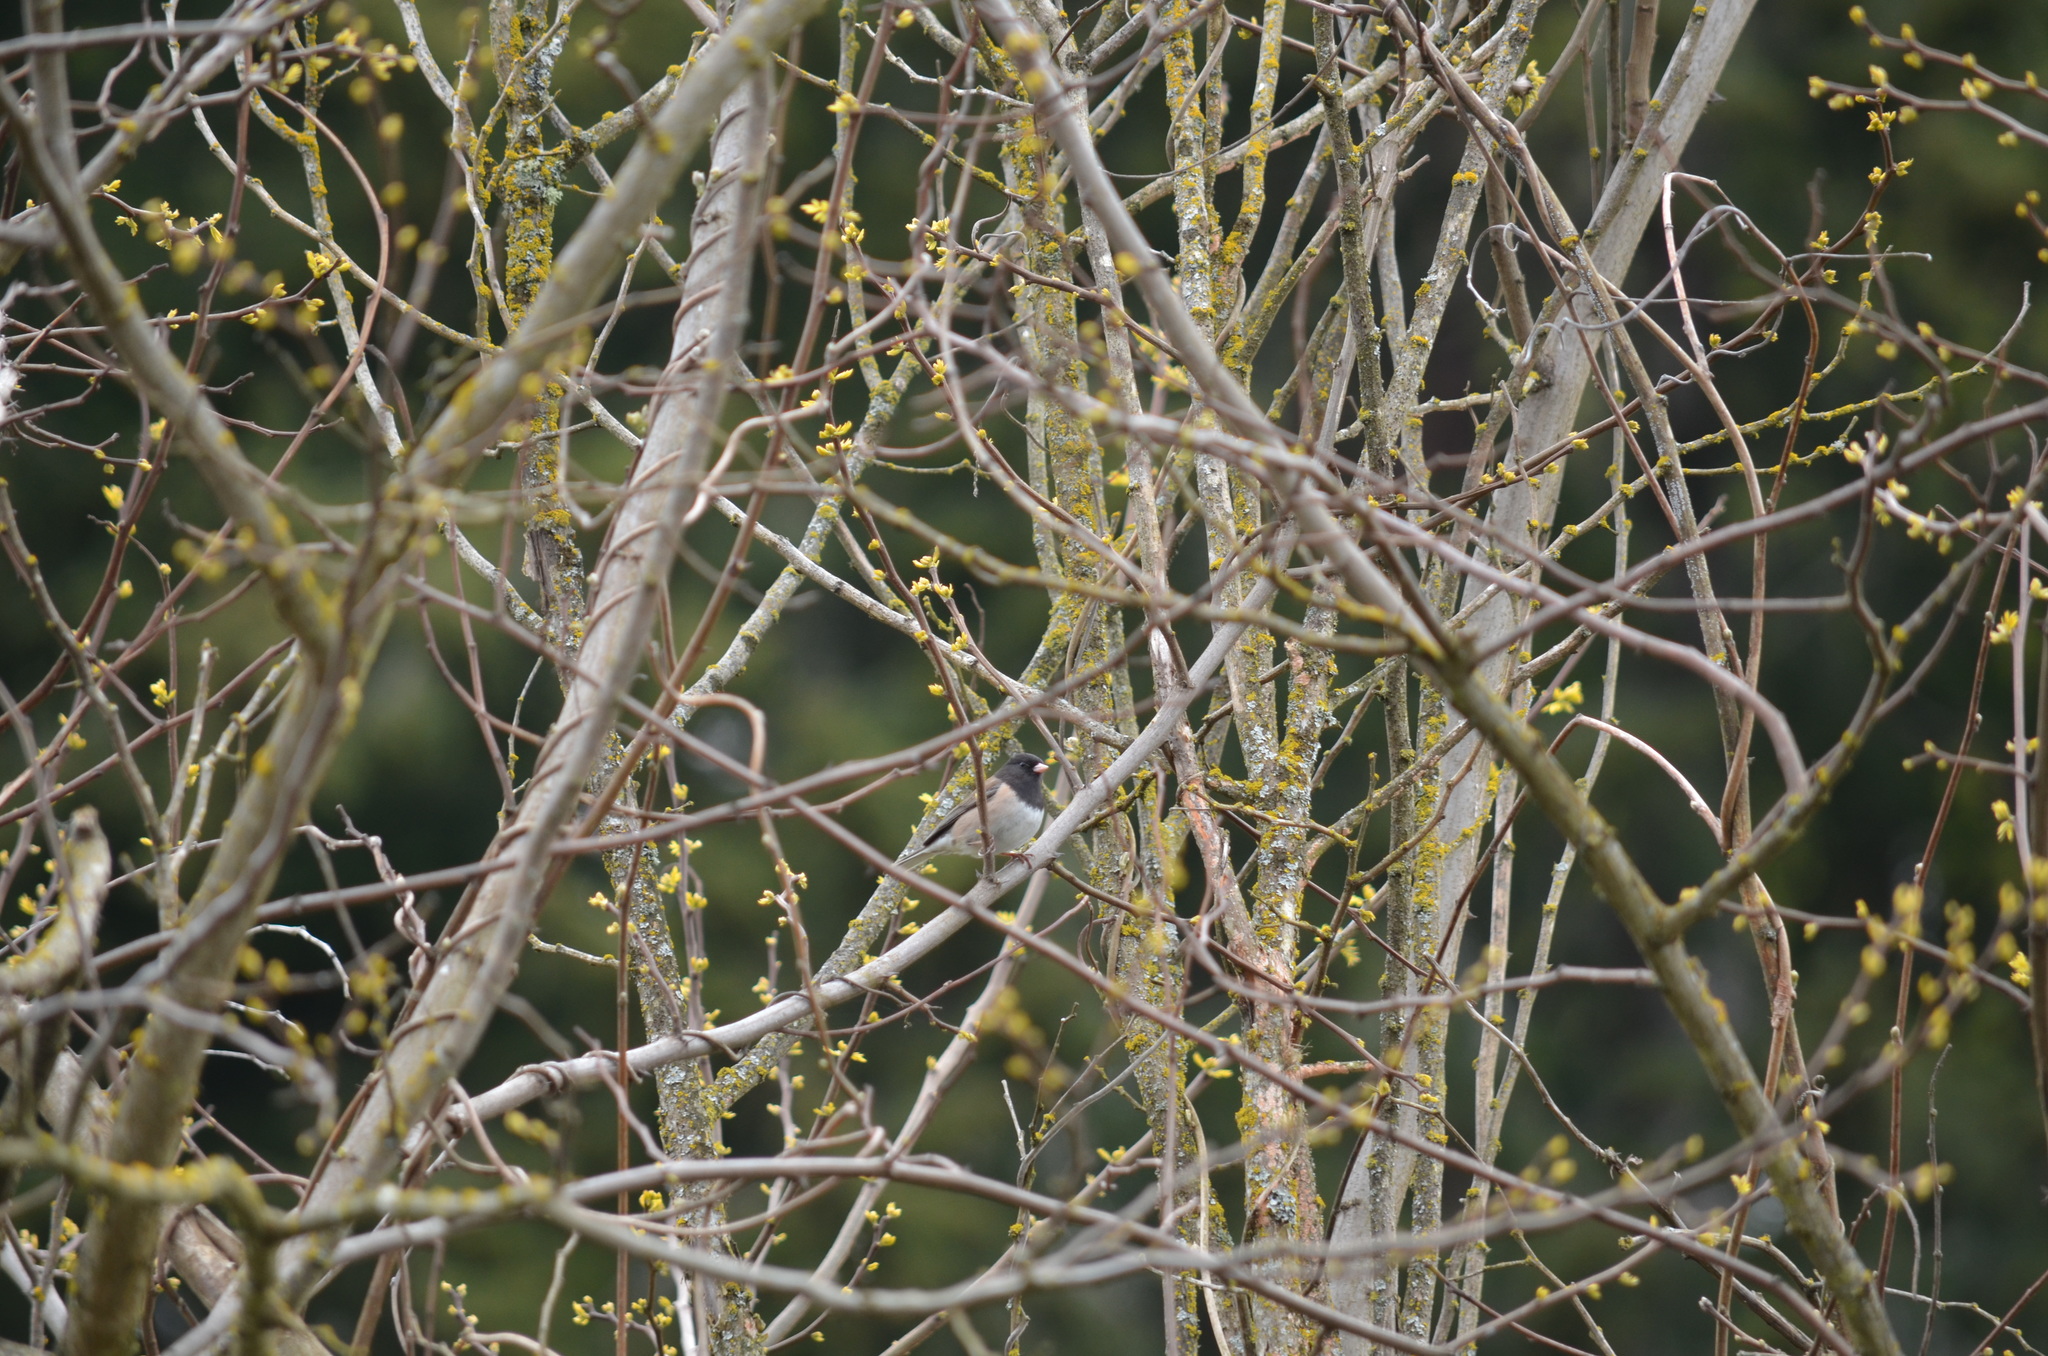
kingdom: Animalia
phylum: Chordata
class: Aves
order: Passeriformes
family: Passerellidae
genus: Junco
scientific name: Junco hyemalis
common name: Dark-eyed junco
